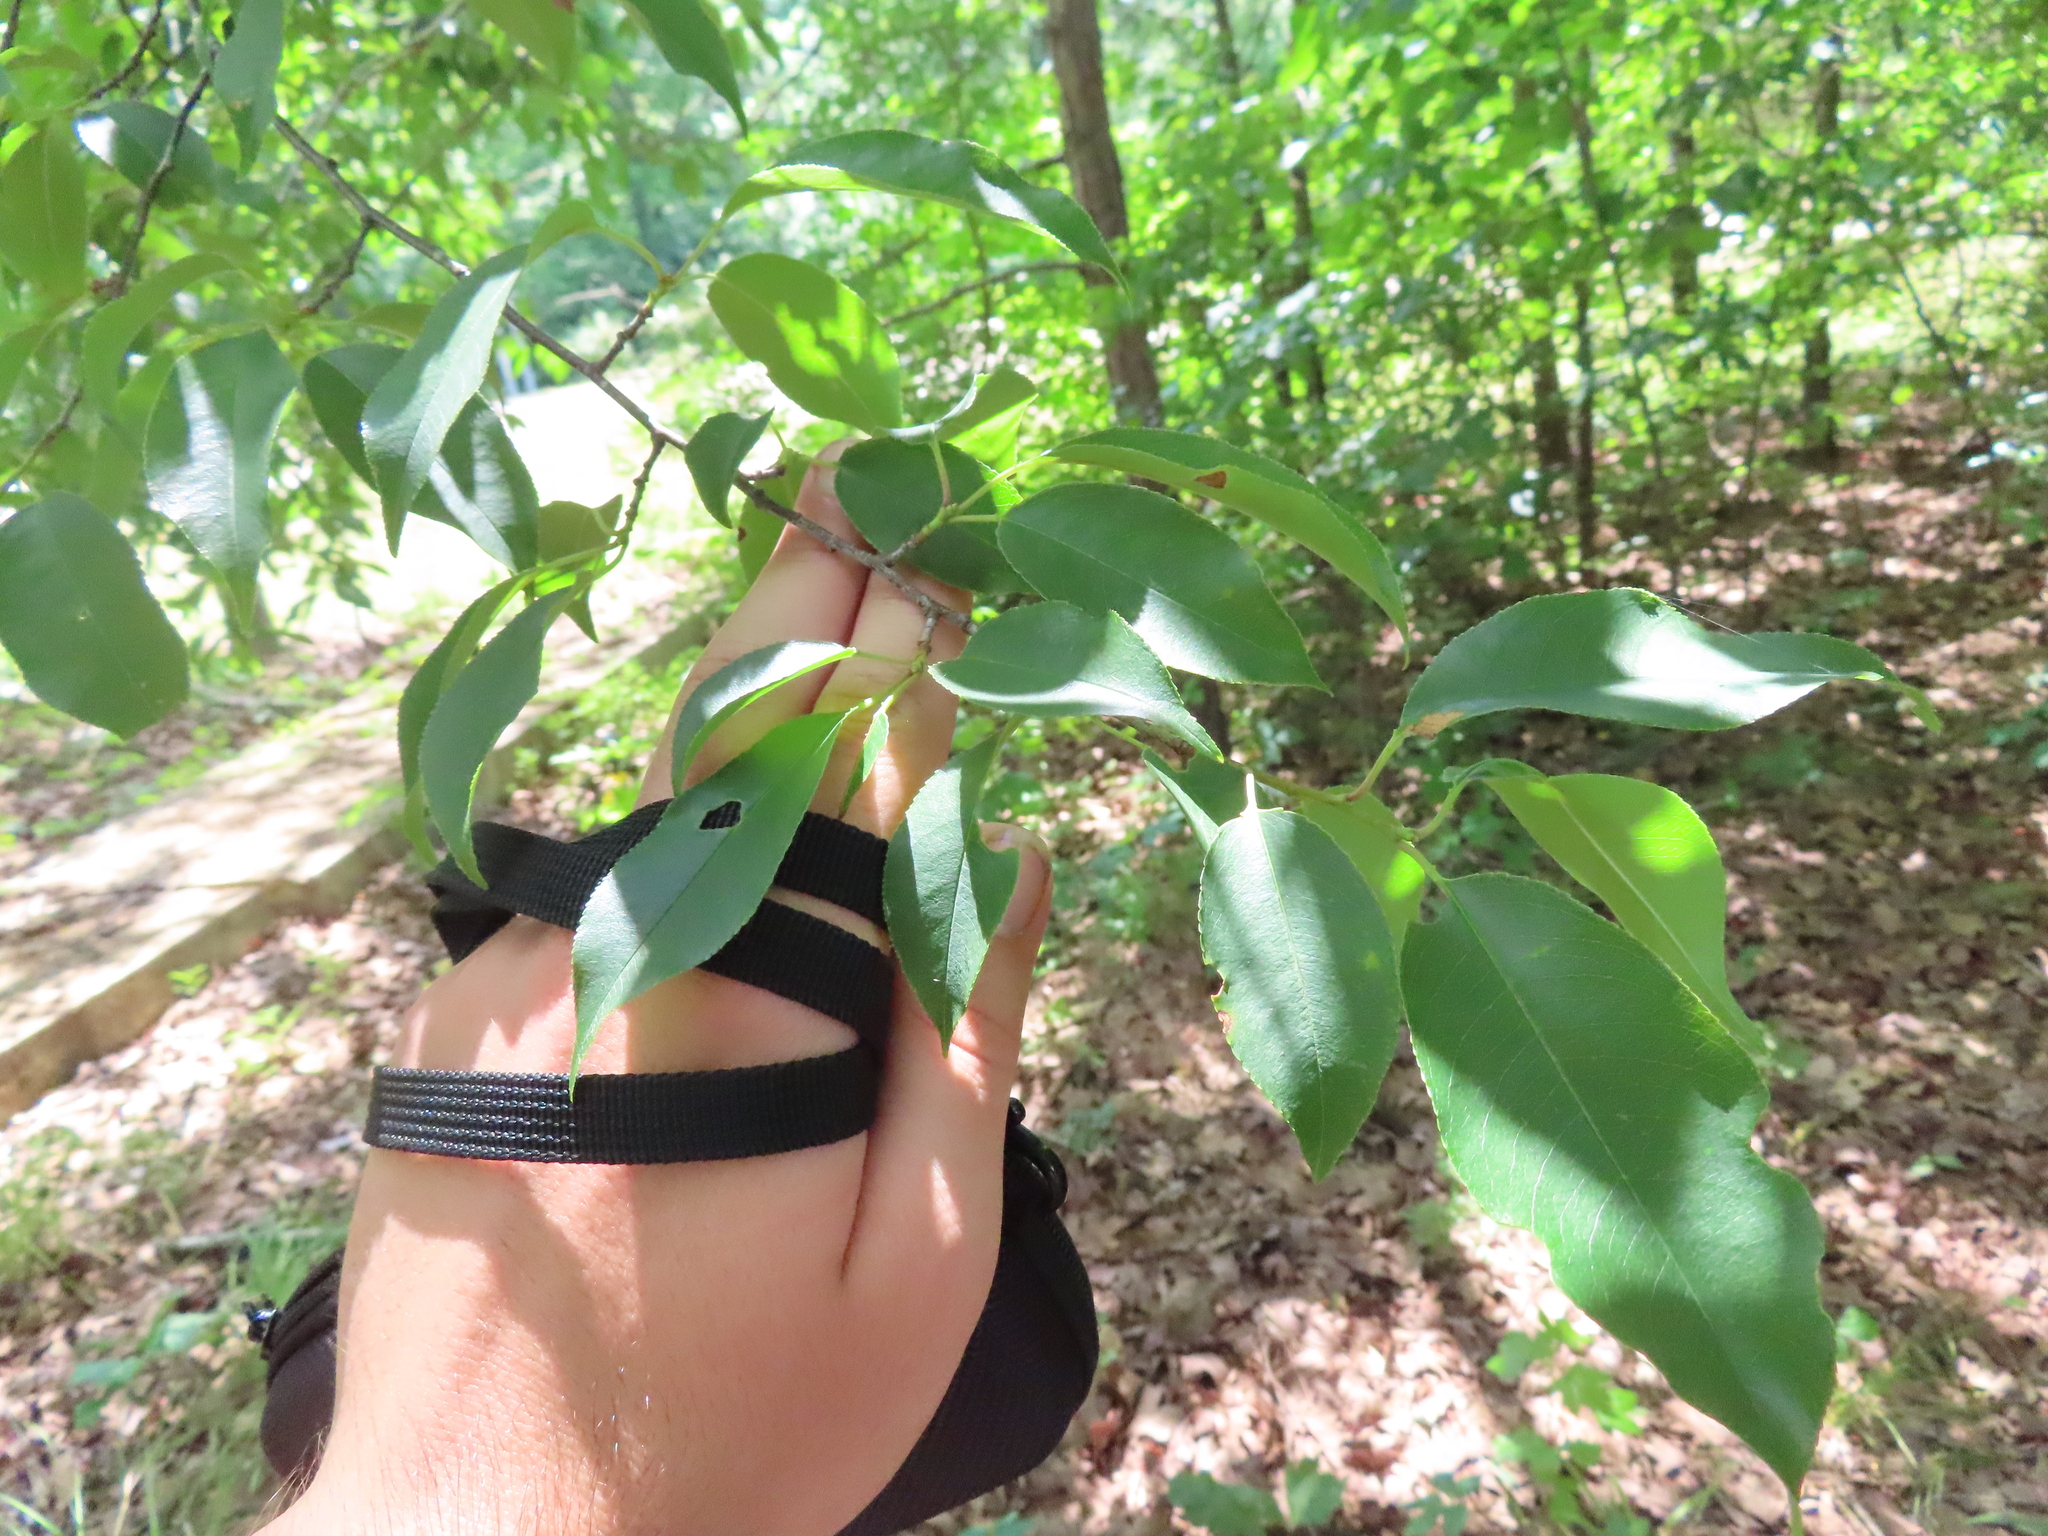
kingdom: Plantae
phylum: Tracheophyta
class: Magnoliopsida
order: Rosales
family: Rosaceae
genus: Prunus
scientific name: Prunus serotina
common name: Black cherry
